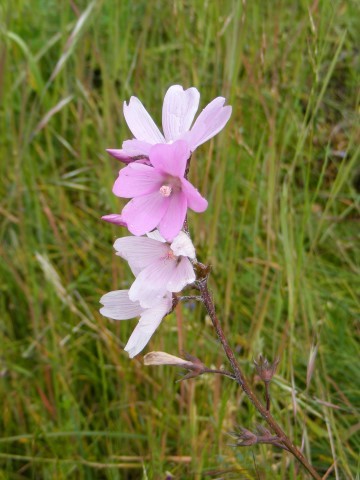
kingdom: Plantae
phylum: Tracheophyta
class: Magnoliopsida
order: Malvales
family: Malvaceae
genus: Sidalcea
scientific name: Sidalcea asprella
